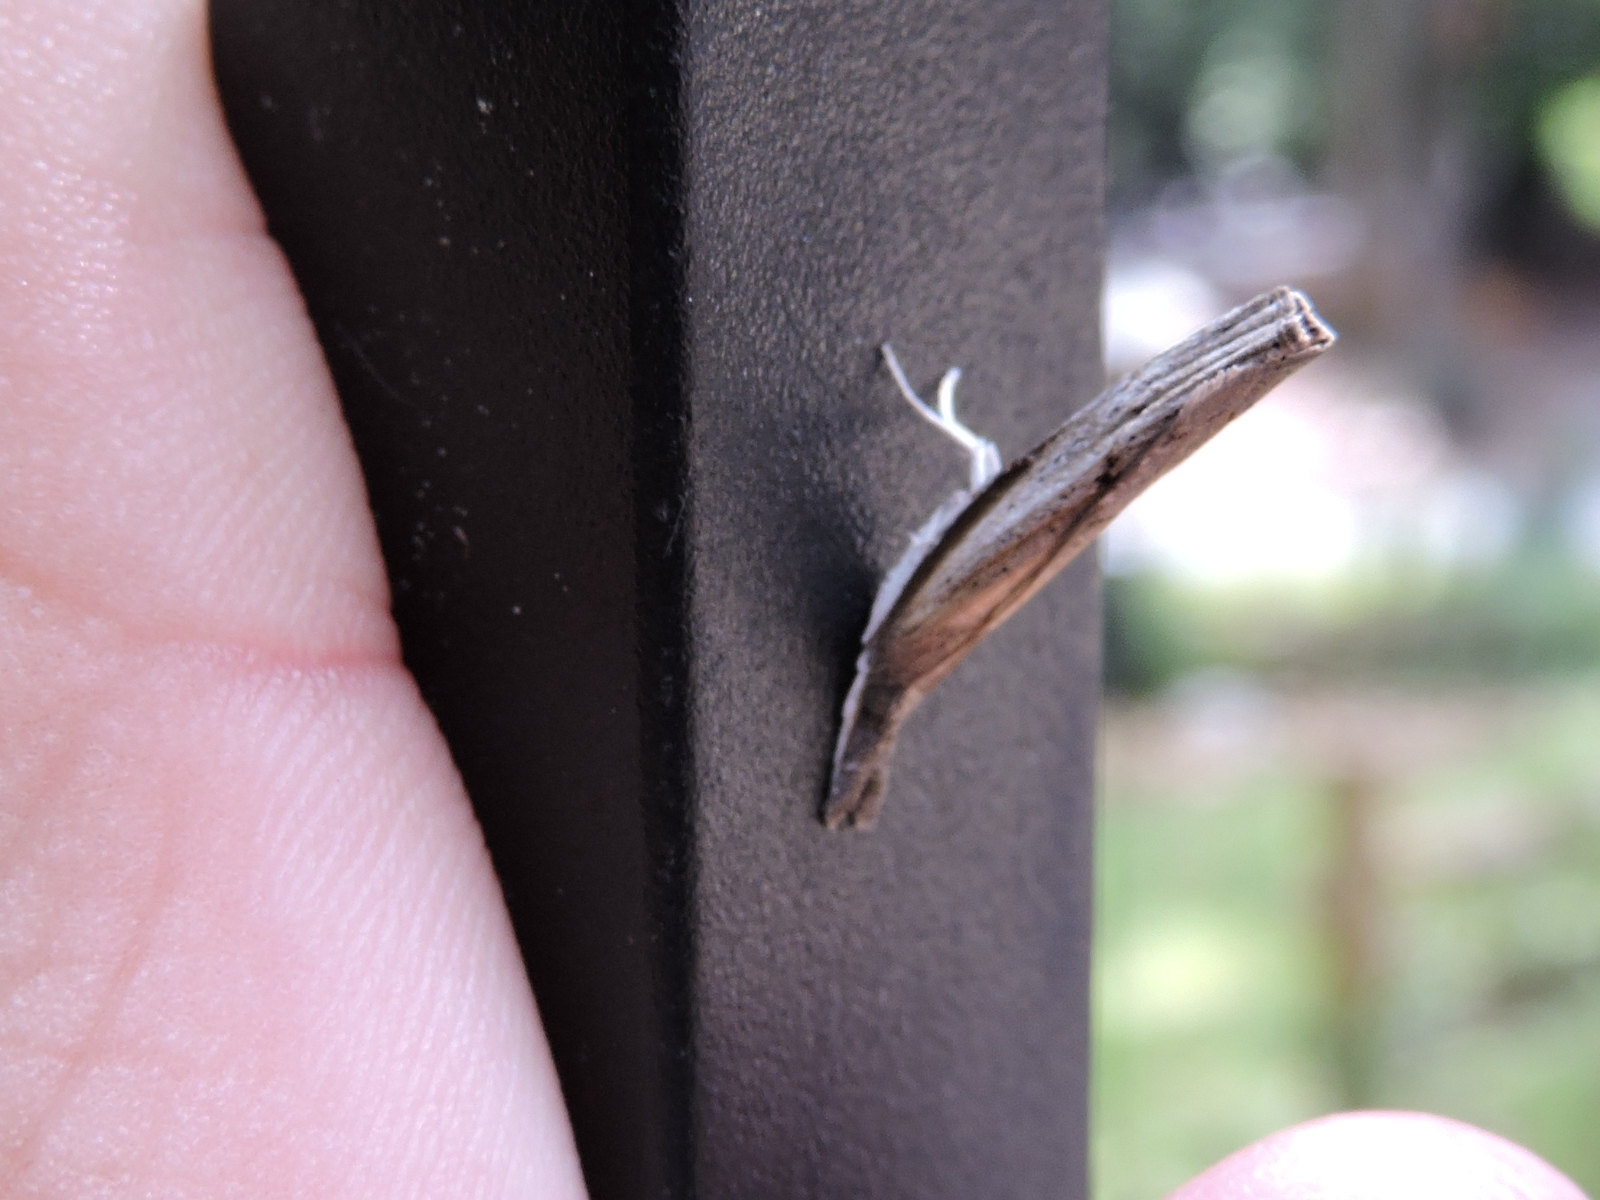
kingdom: Animalia
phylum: Arthropoda
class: Insecta
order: Lepidoptera
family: Crambidae
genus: Fissicrambus
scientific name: Fissicrambus mutabilis
